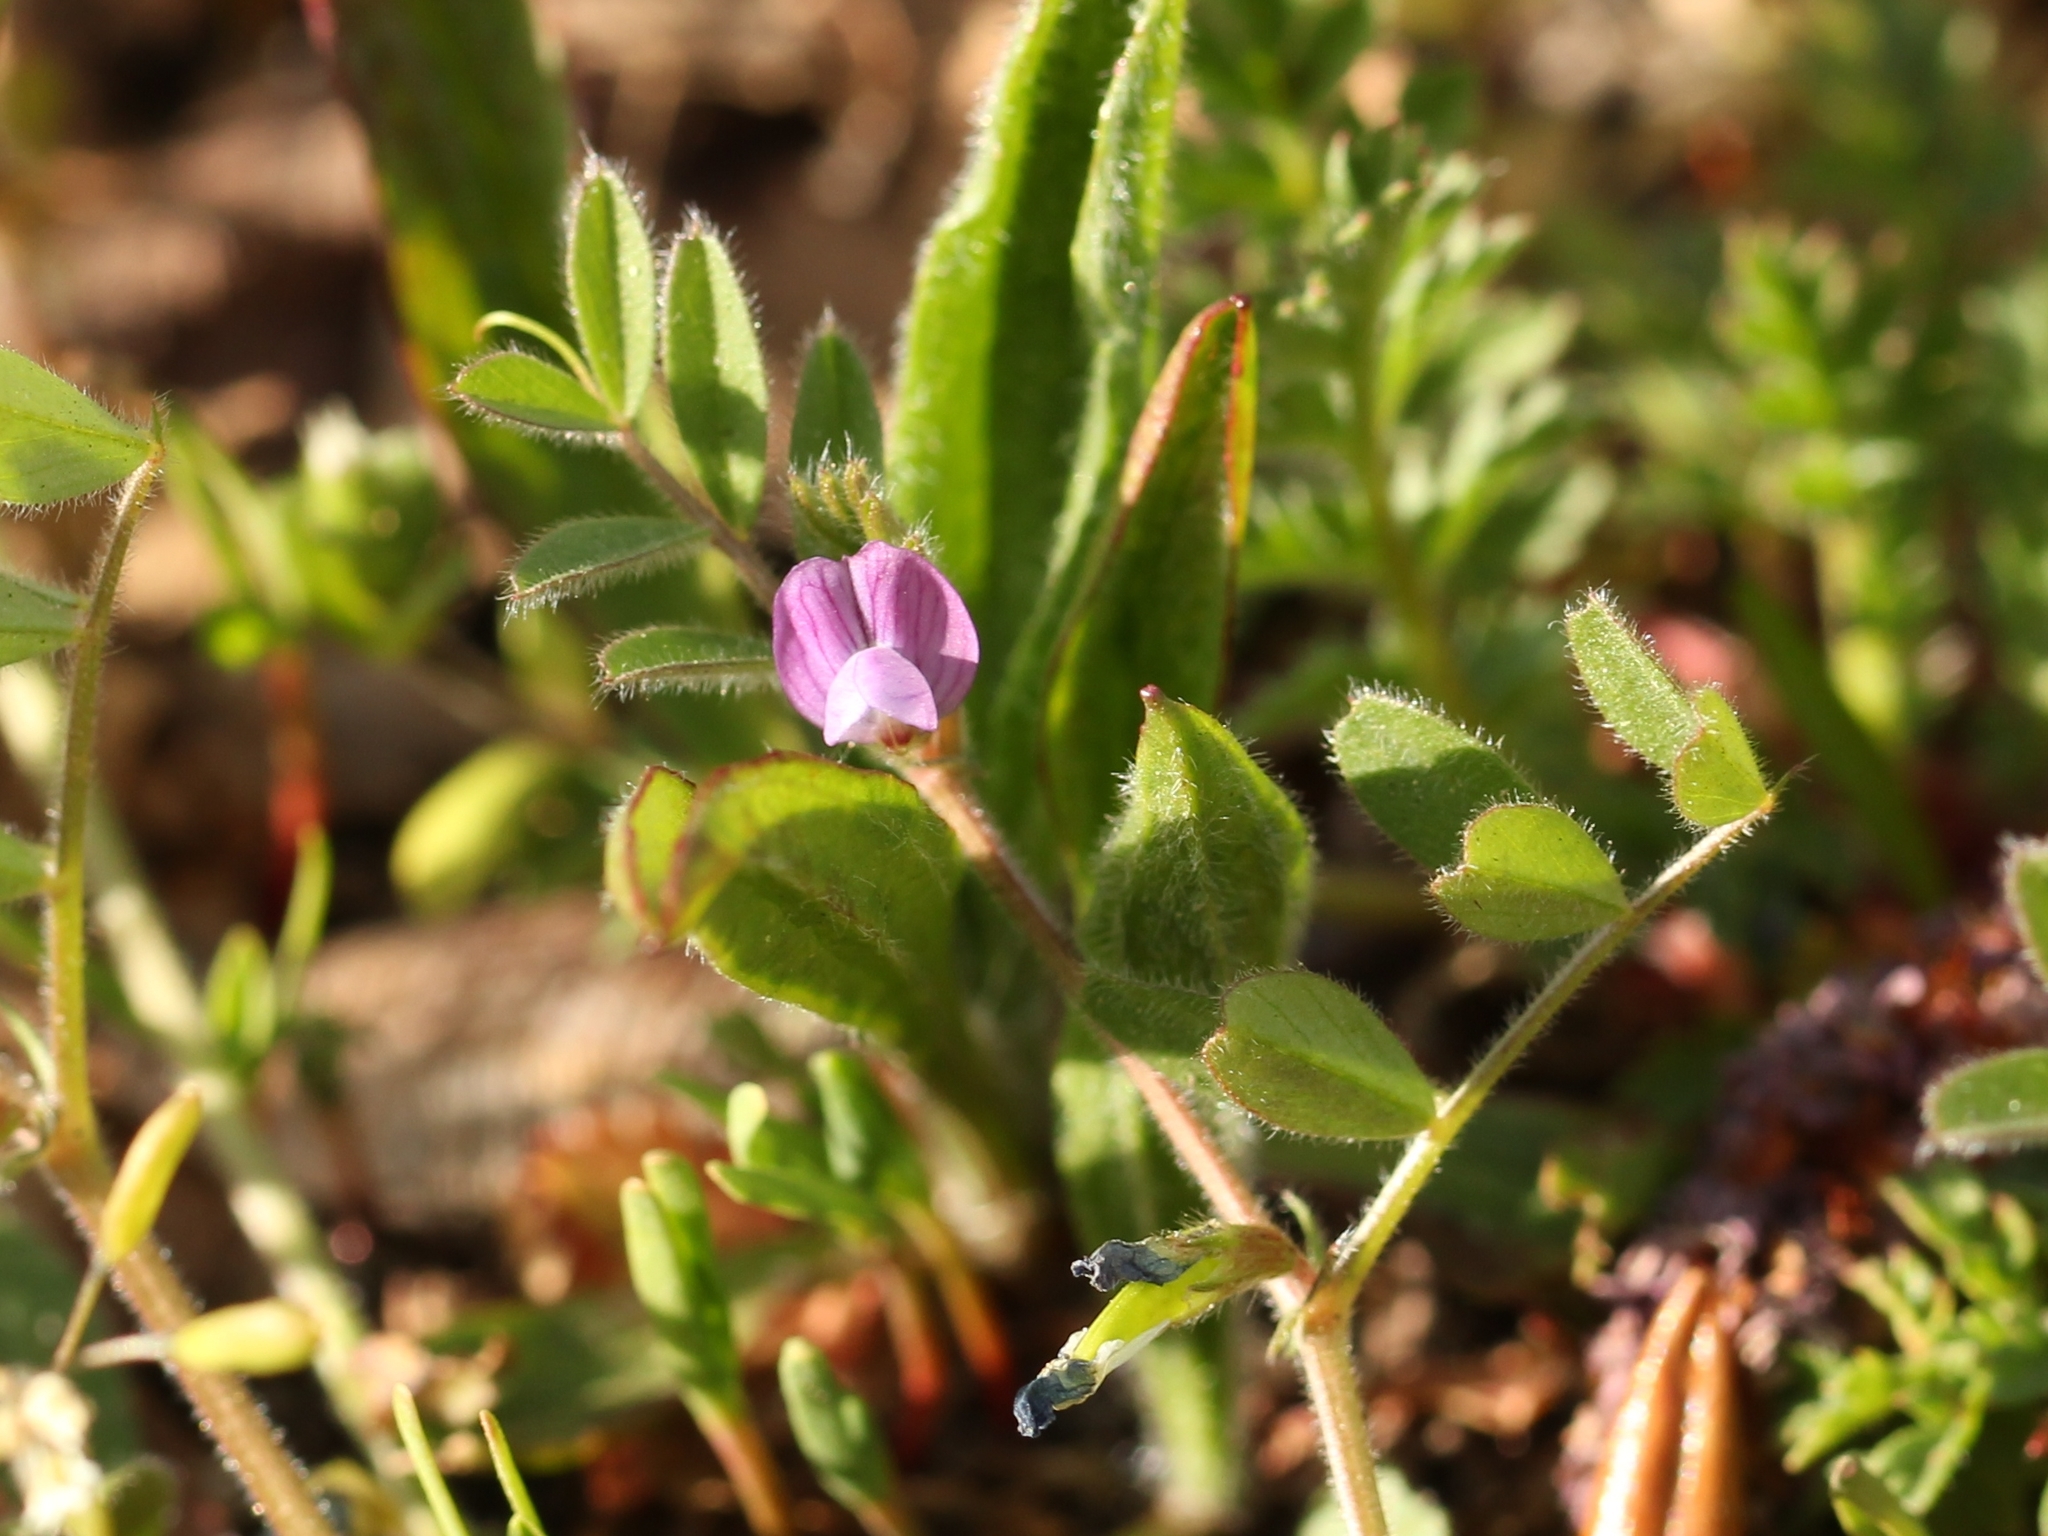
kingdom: Plantae
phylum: Tracheophyta
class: Magnoliopsida
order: Fabales
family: Fabaceae
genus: Vicia
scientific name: Vicia sativa
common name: Garden vetch
